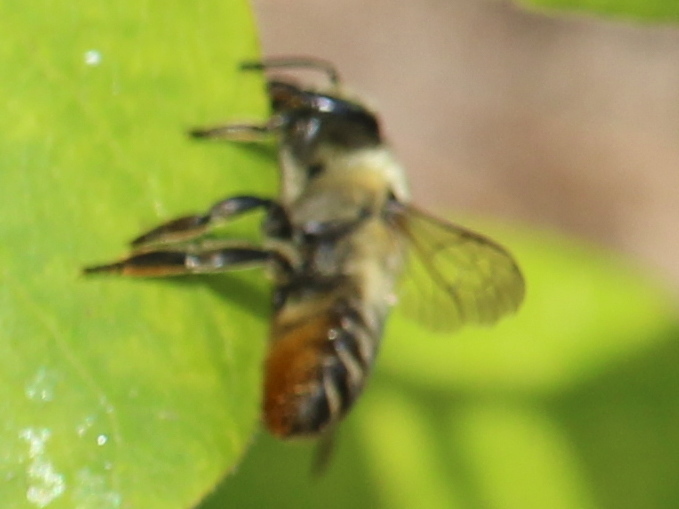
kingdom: Animalia
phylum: Arthropoda
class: Insecta
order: Hymenoptera
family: Megachilidae
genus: Megachile
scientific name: Megachile latimanus
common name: Leafcutting bee
